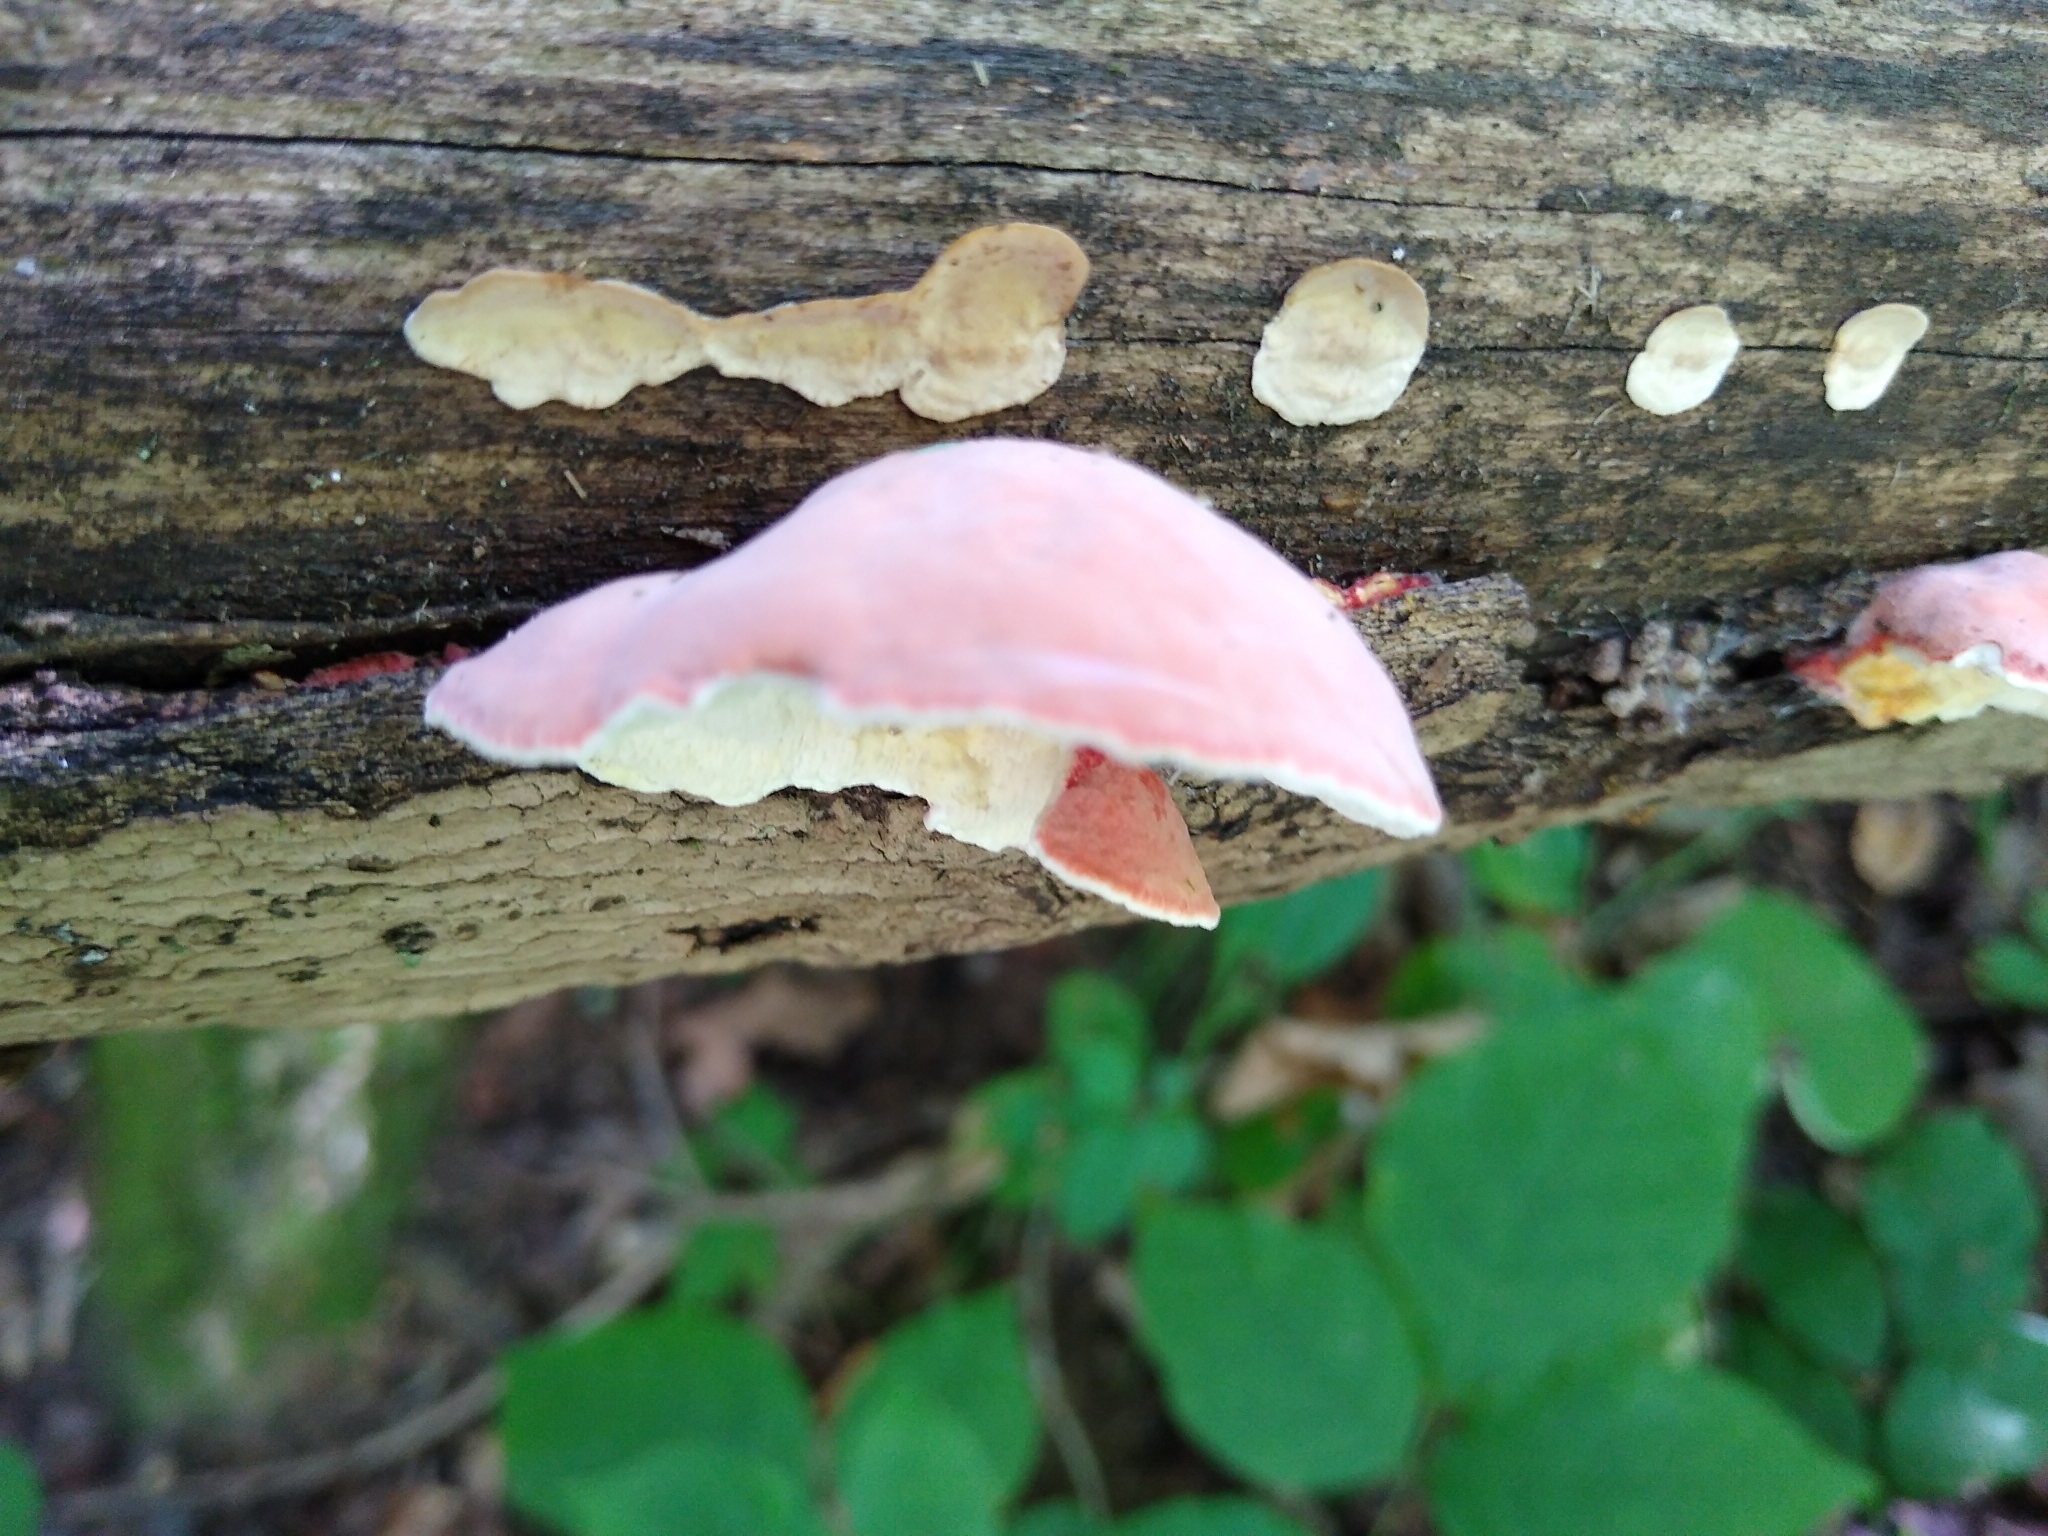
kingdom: Fungi
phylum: Basidiomycota
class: Agaricomycetes
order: Polyporales
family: Irpicaceae
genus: Byssomerulius
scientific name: Byssomerulius incarnatus
